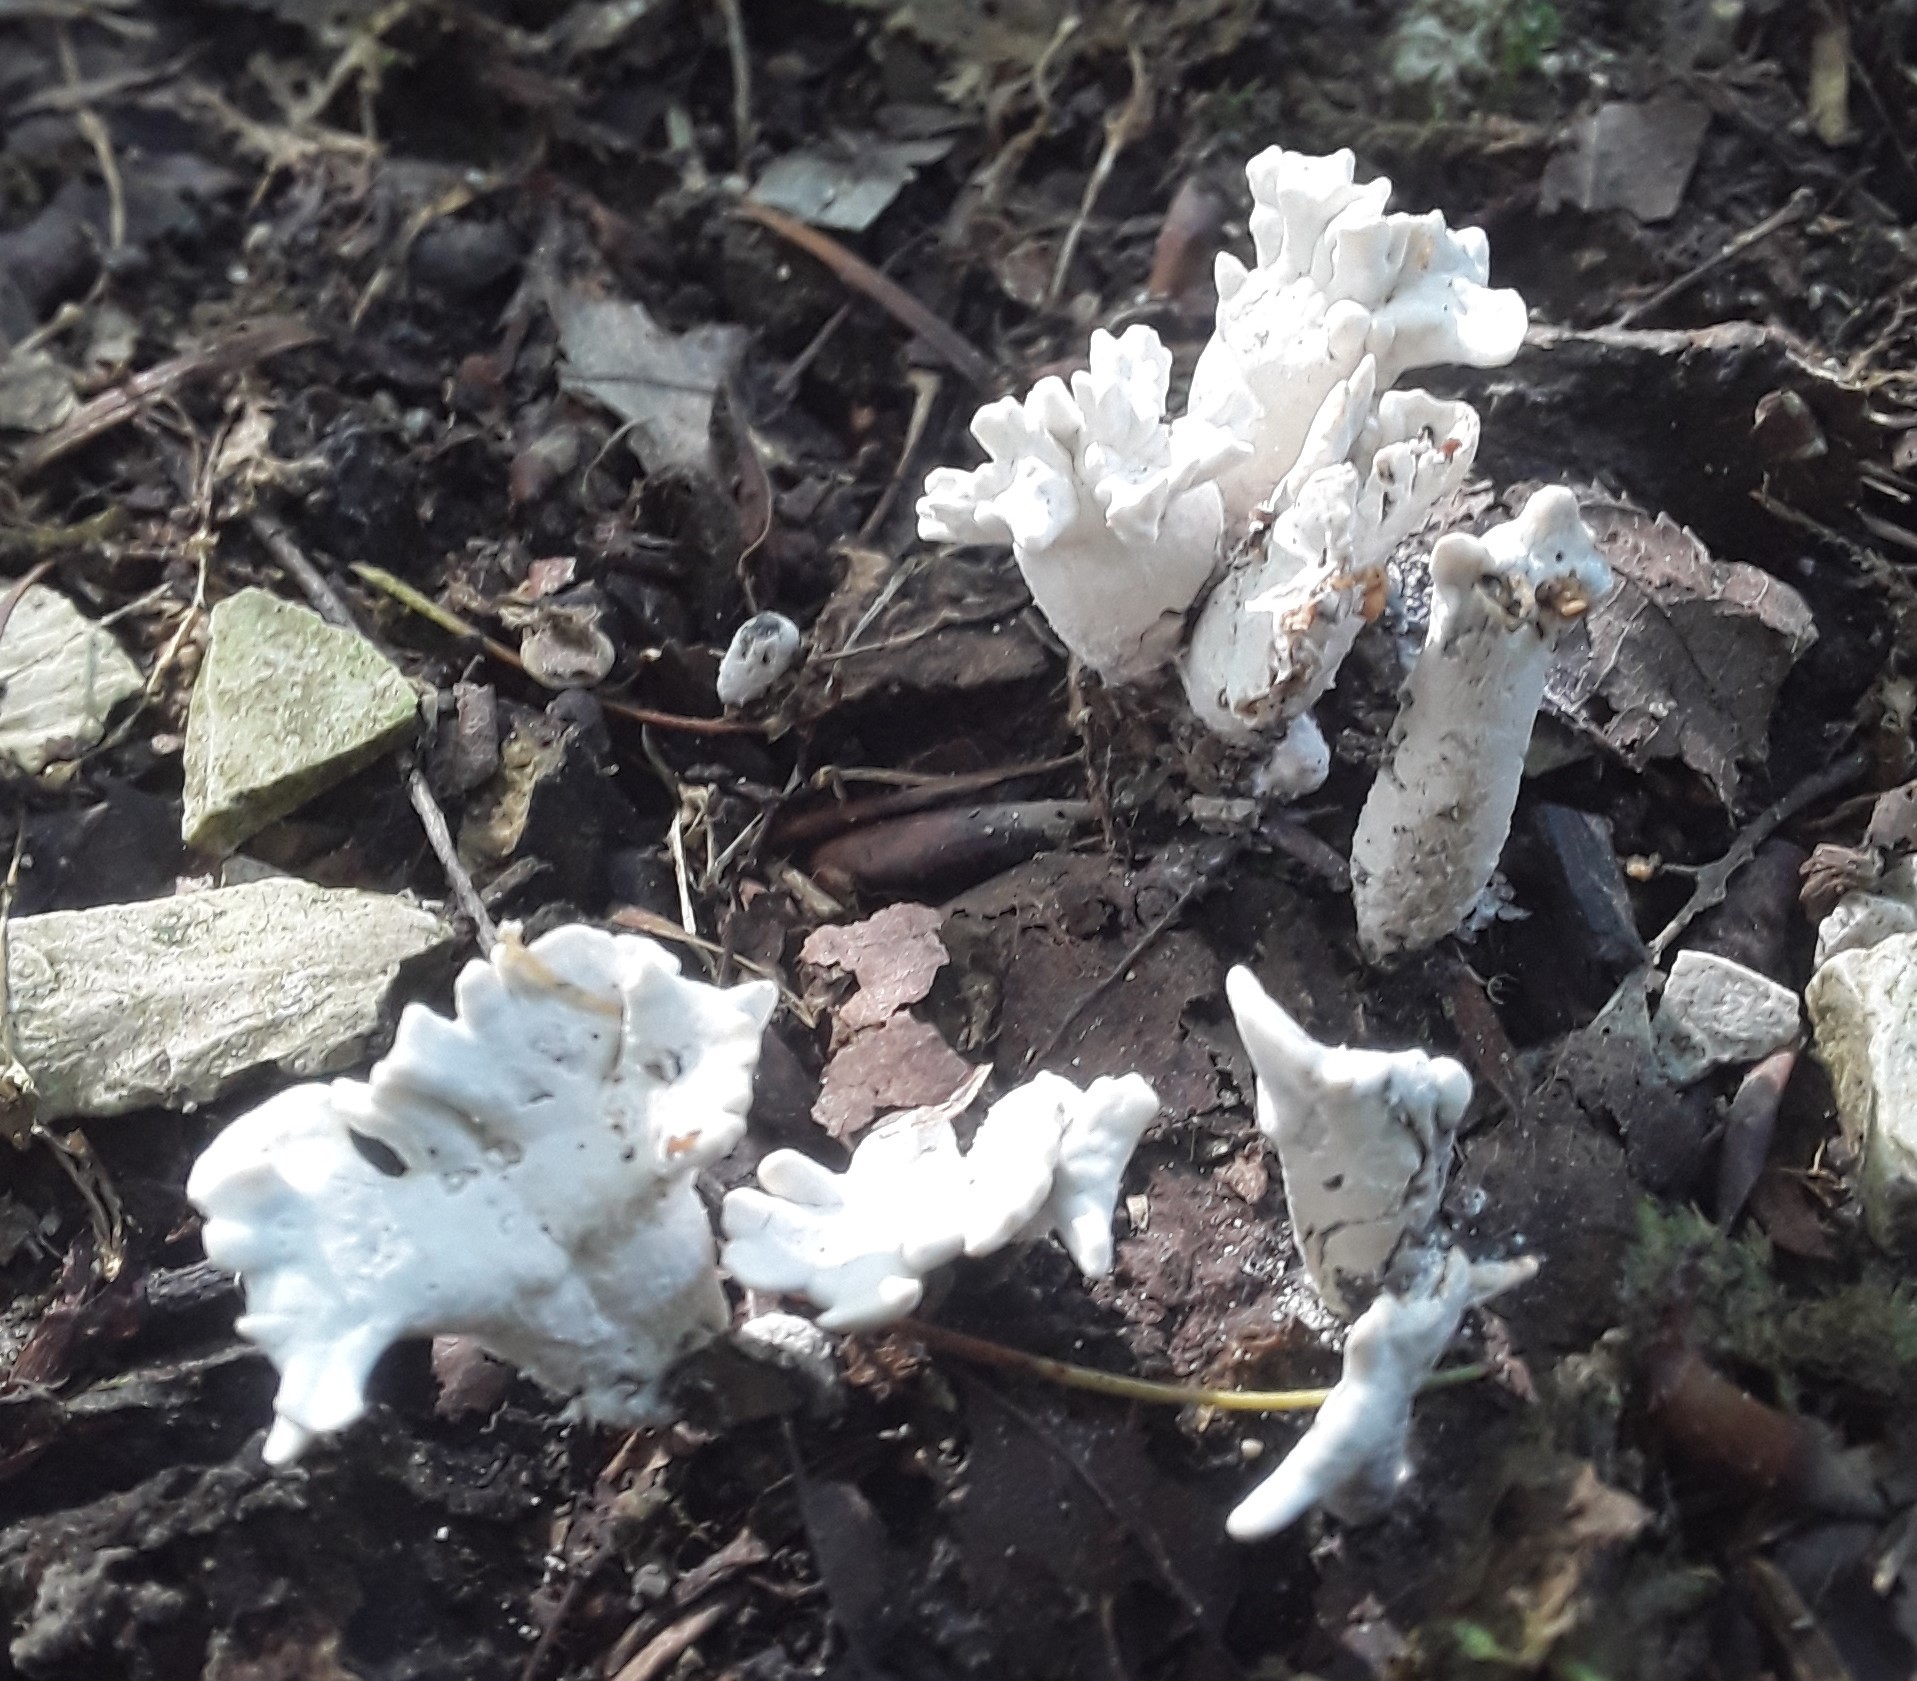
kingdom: Fungi
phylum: Ascomycota
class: Sordariomycetes
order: Xylariales
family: Xylariaceae
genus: Xylaria
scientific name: Xylaria
